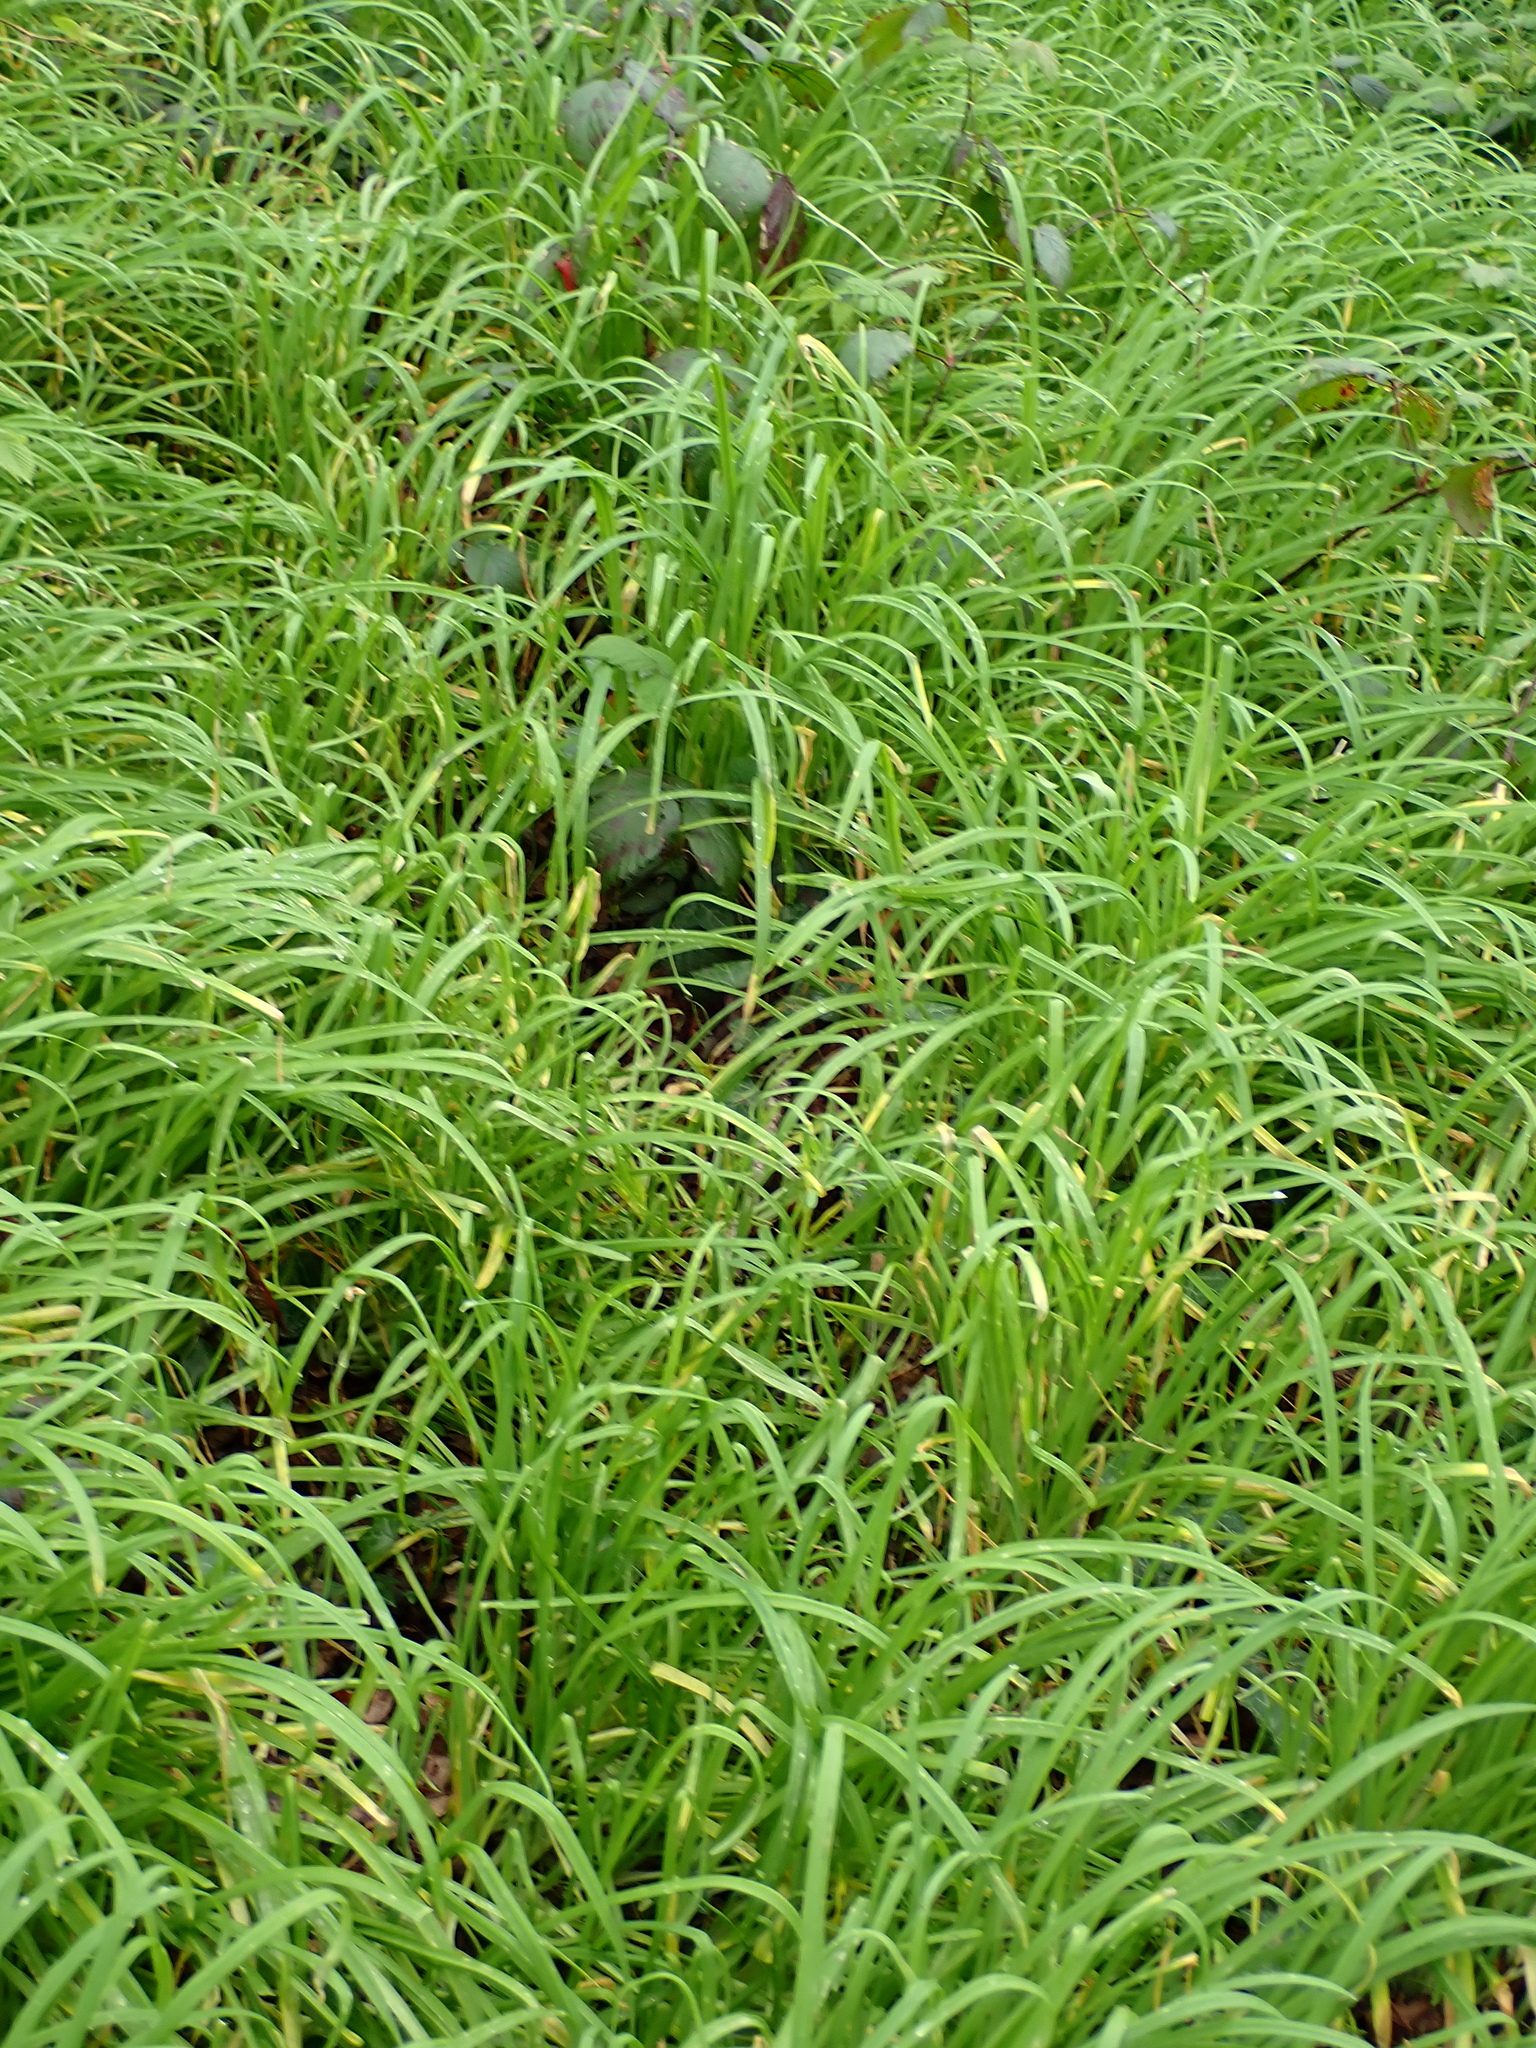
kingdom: Plantae
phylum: Tracheophyta
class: Liliopsida
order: Asparagales
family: Amaryllidaceae
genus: Allium
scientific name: Allium triquetrum
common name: Three-cornered garlic
